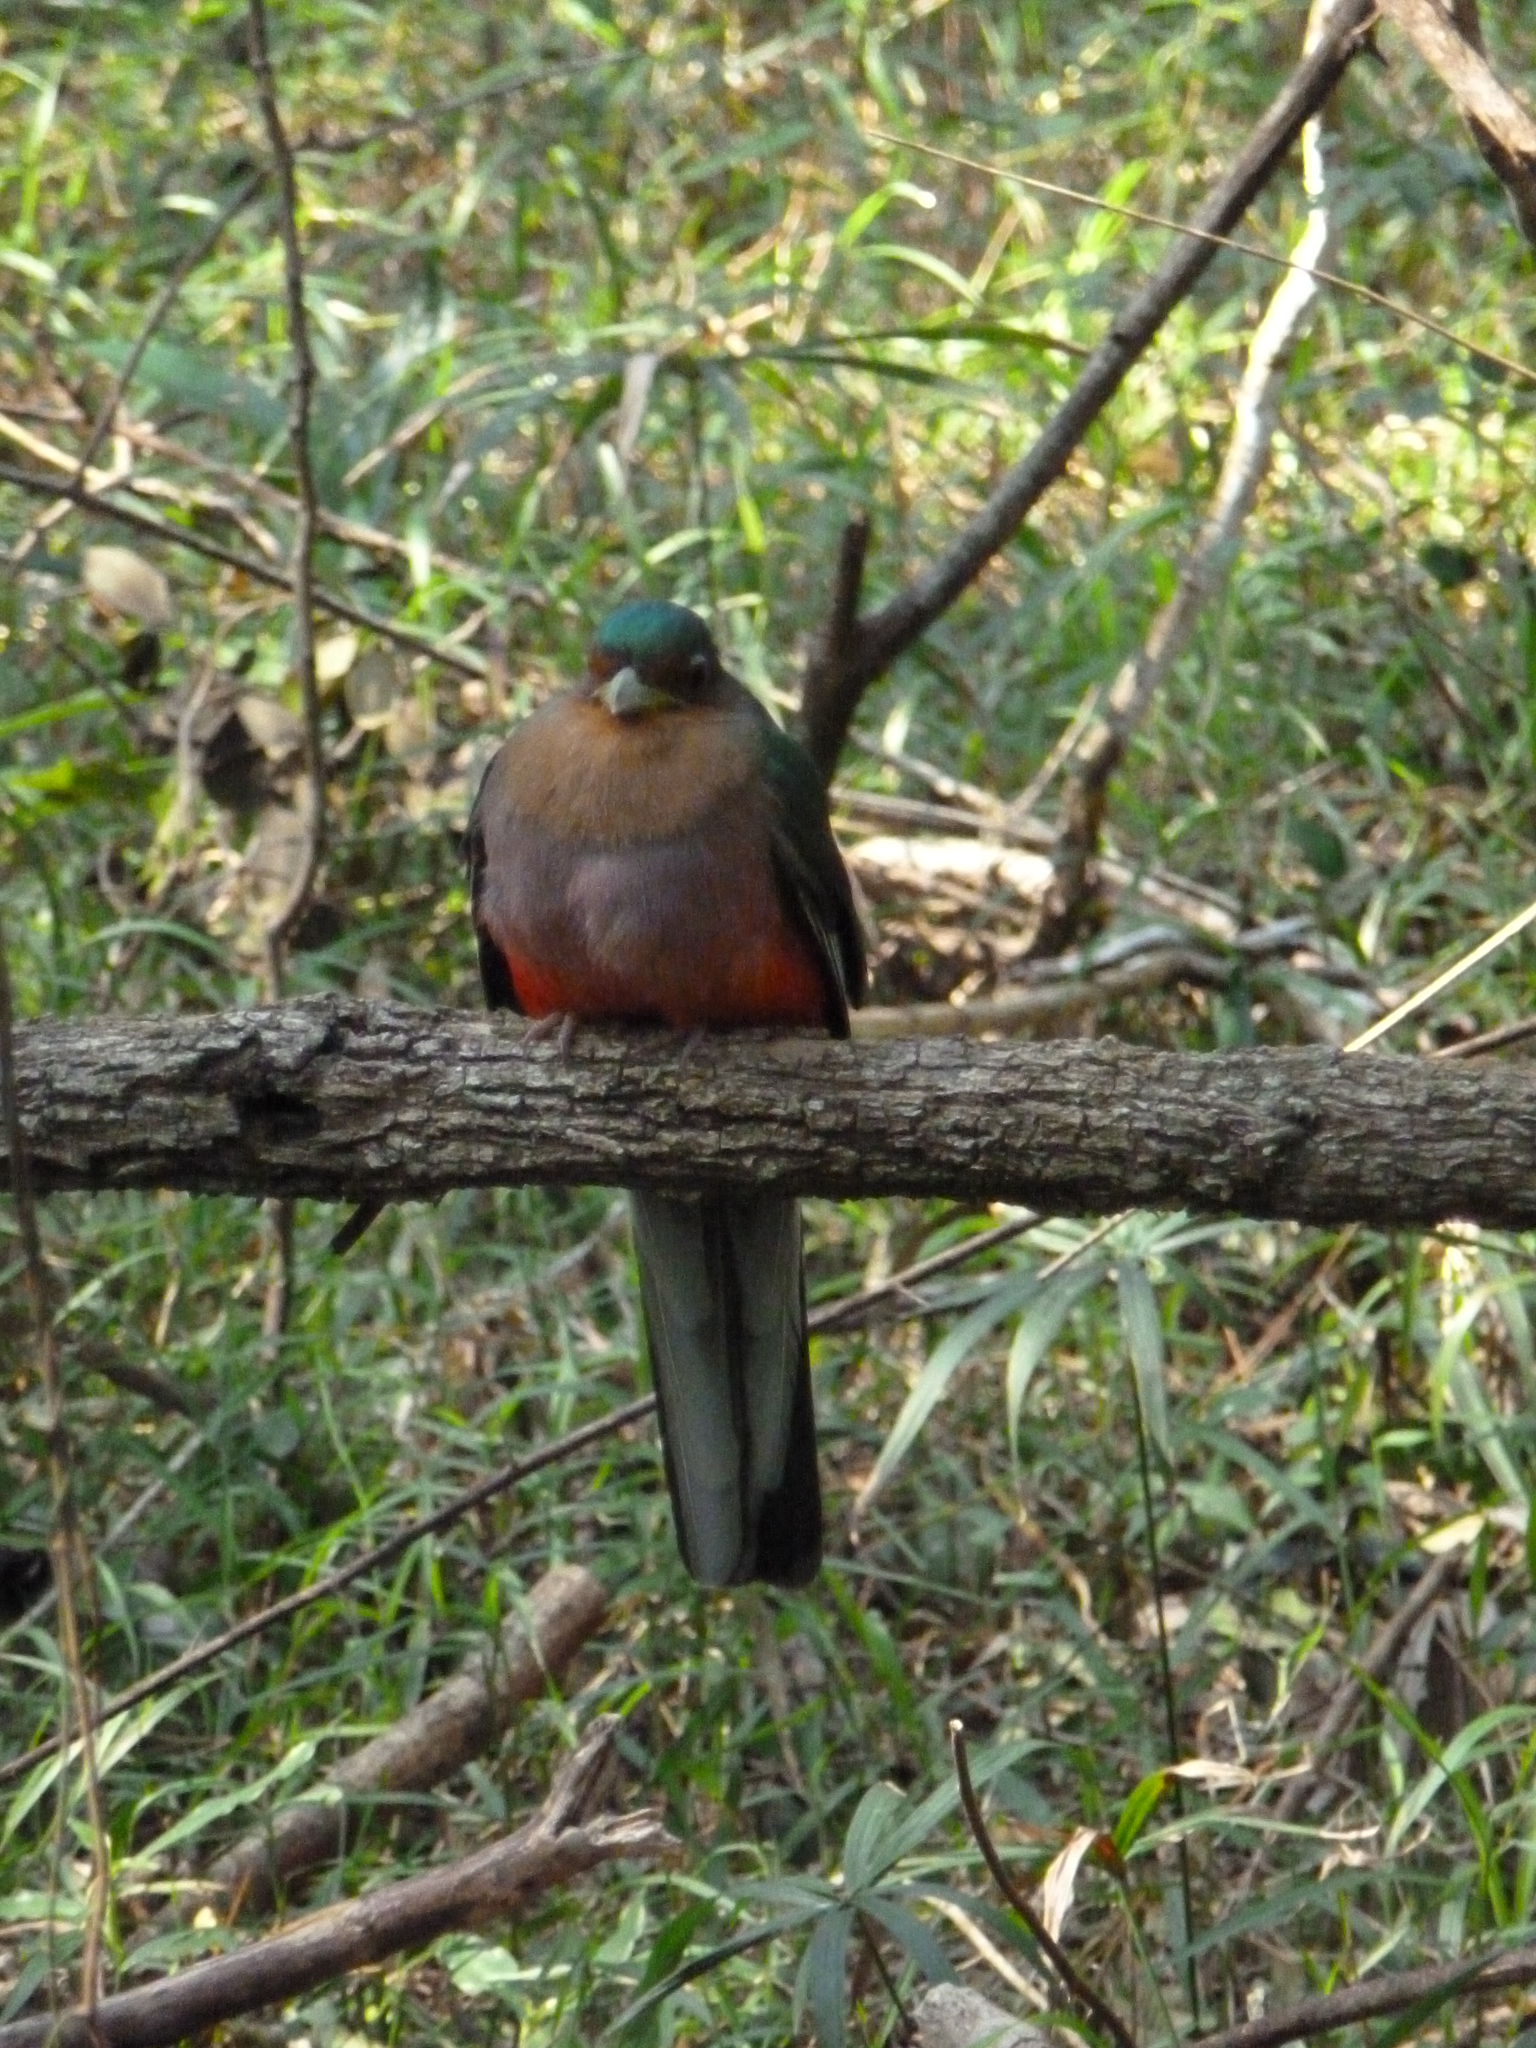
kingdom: Animalia
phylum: Chordata
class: Aves
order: Trogoniformes
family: Trogonidae
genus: Apaloderma
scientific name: Apaloderma narina
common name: Narina trogon
